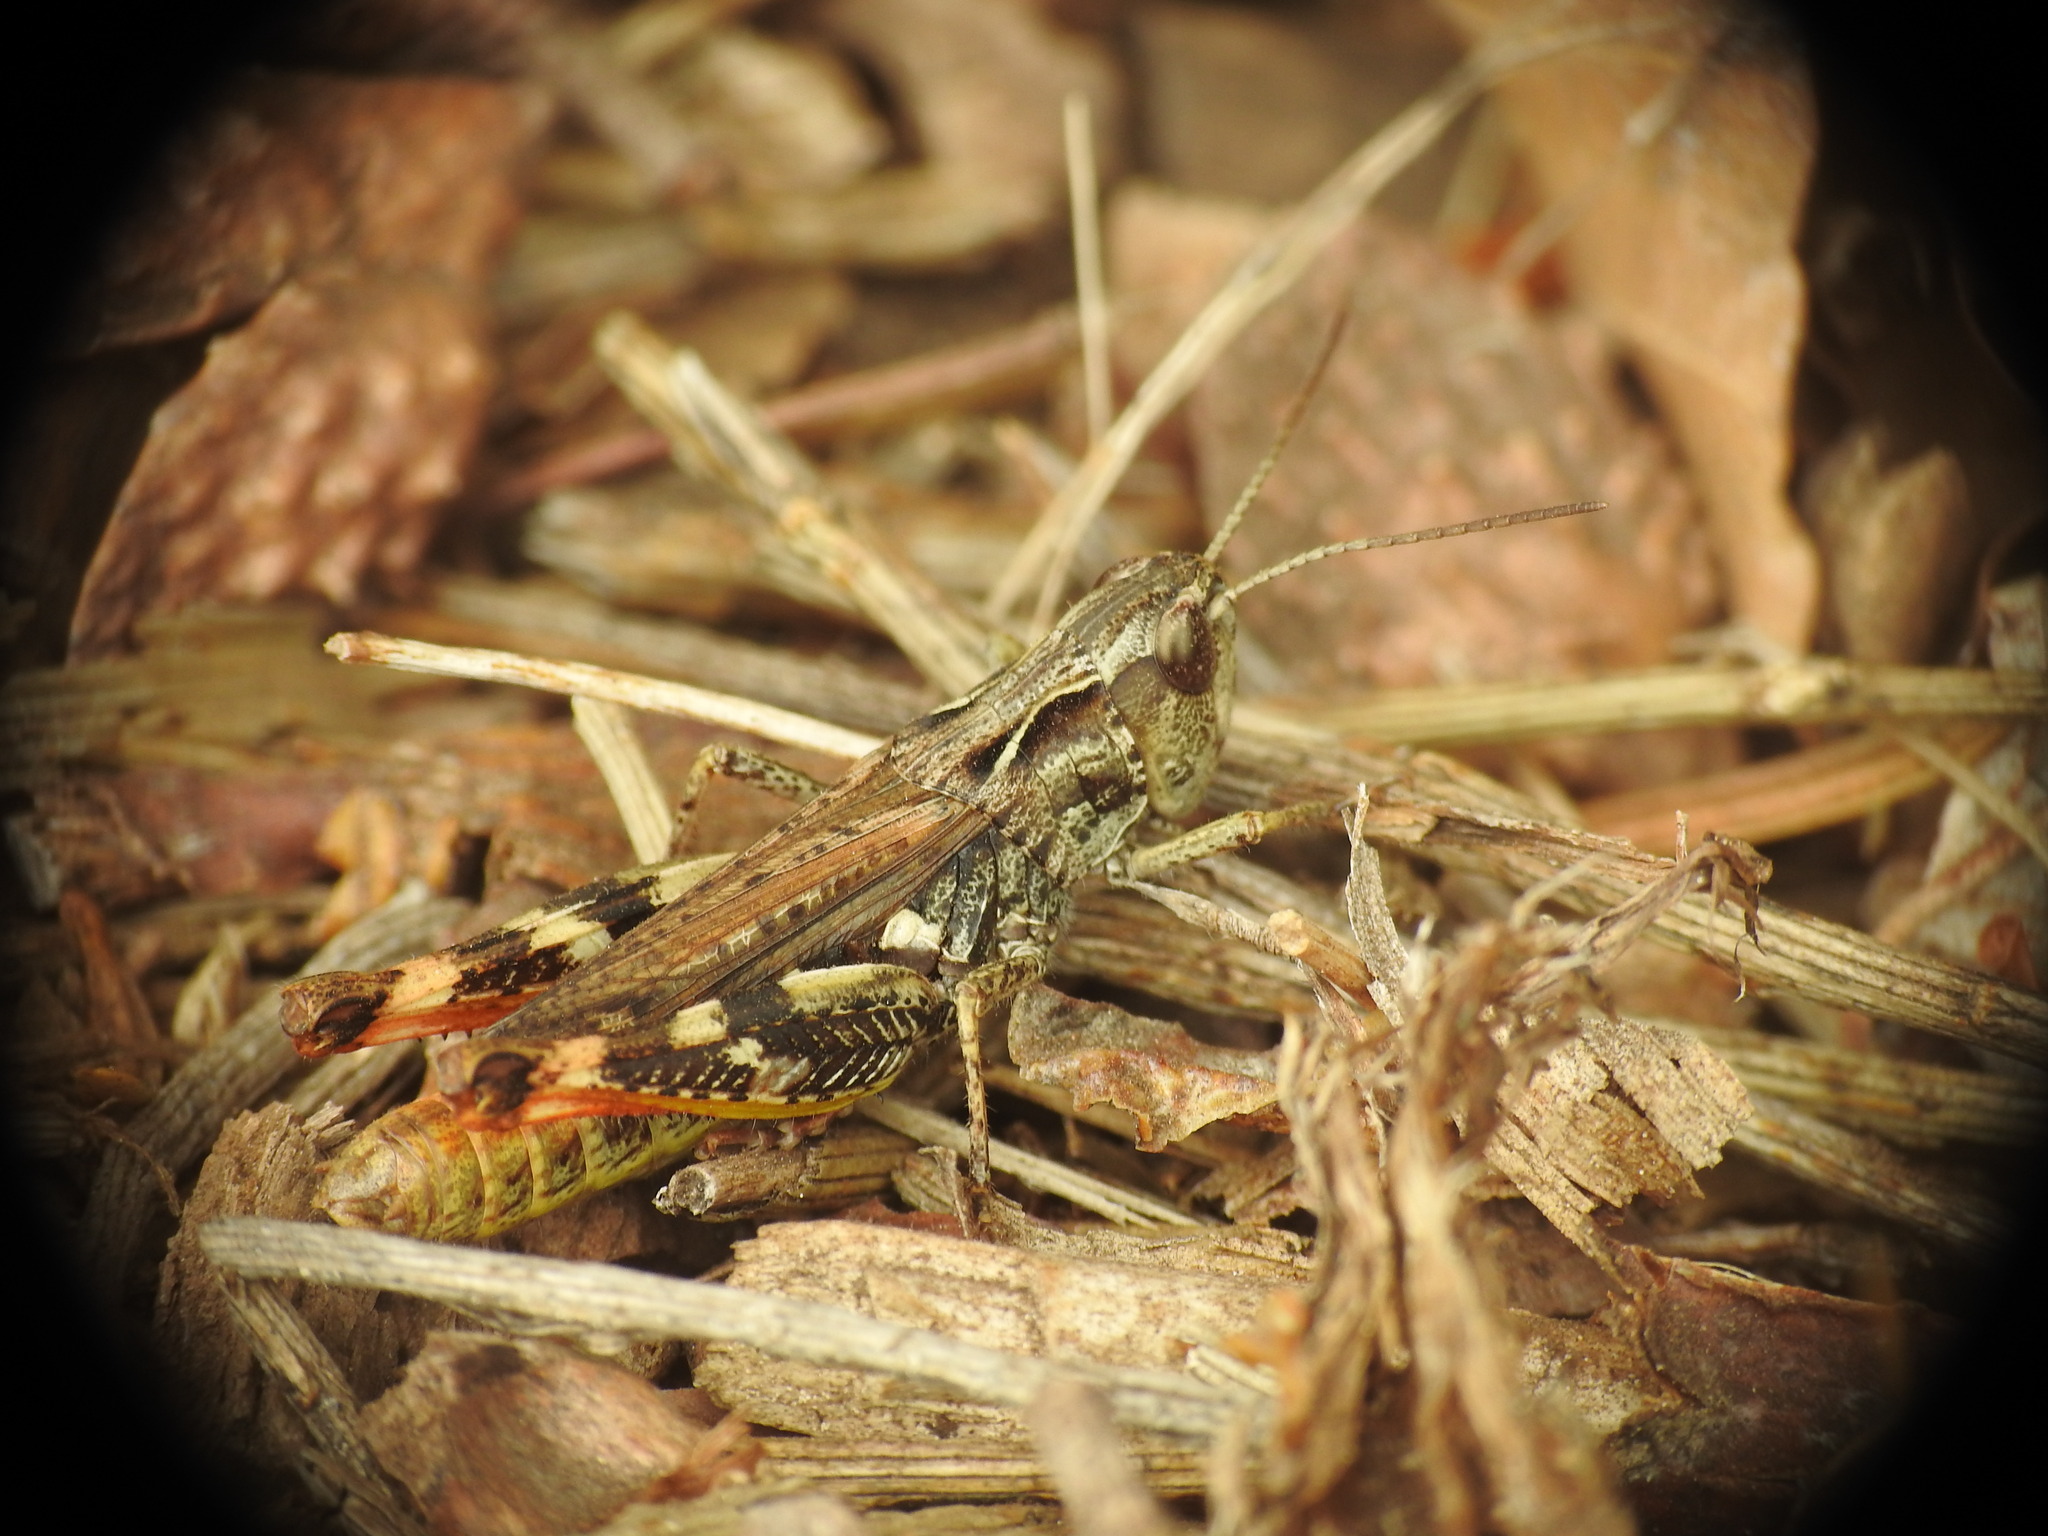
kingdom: Animalia
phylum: Arthropoda
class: Insecta
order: Orthoptera
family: Acrididae
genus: Chorthippus
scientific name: Chorthippus saulcyi
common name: French grasshopper
